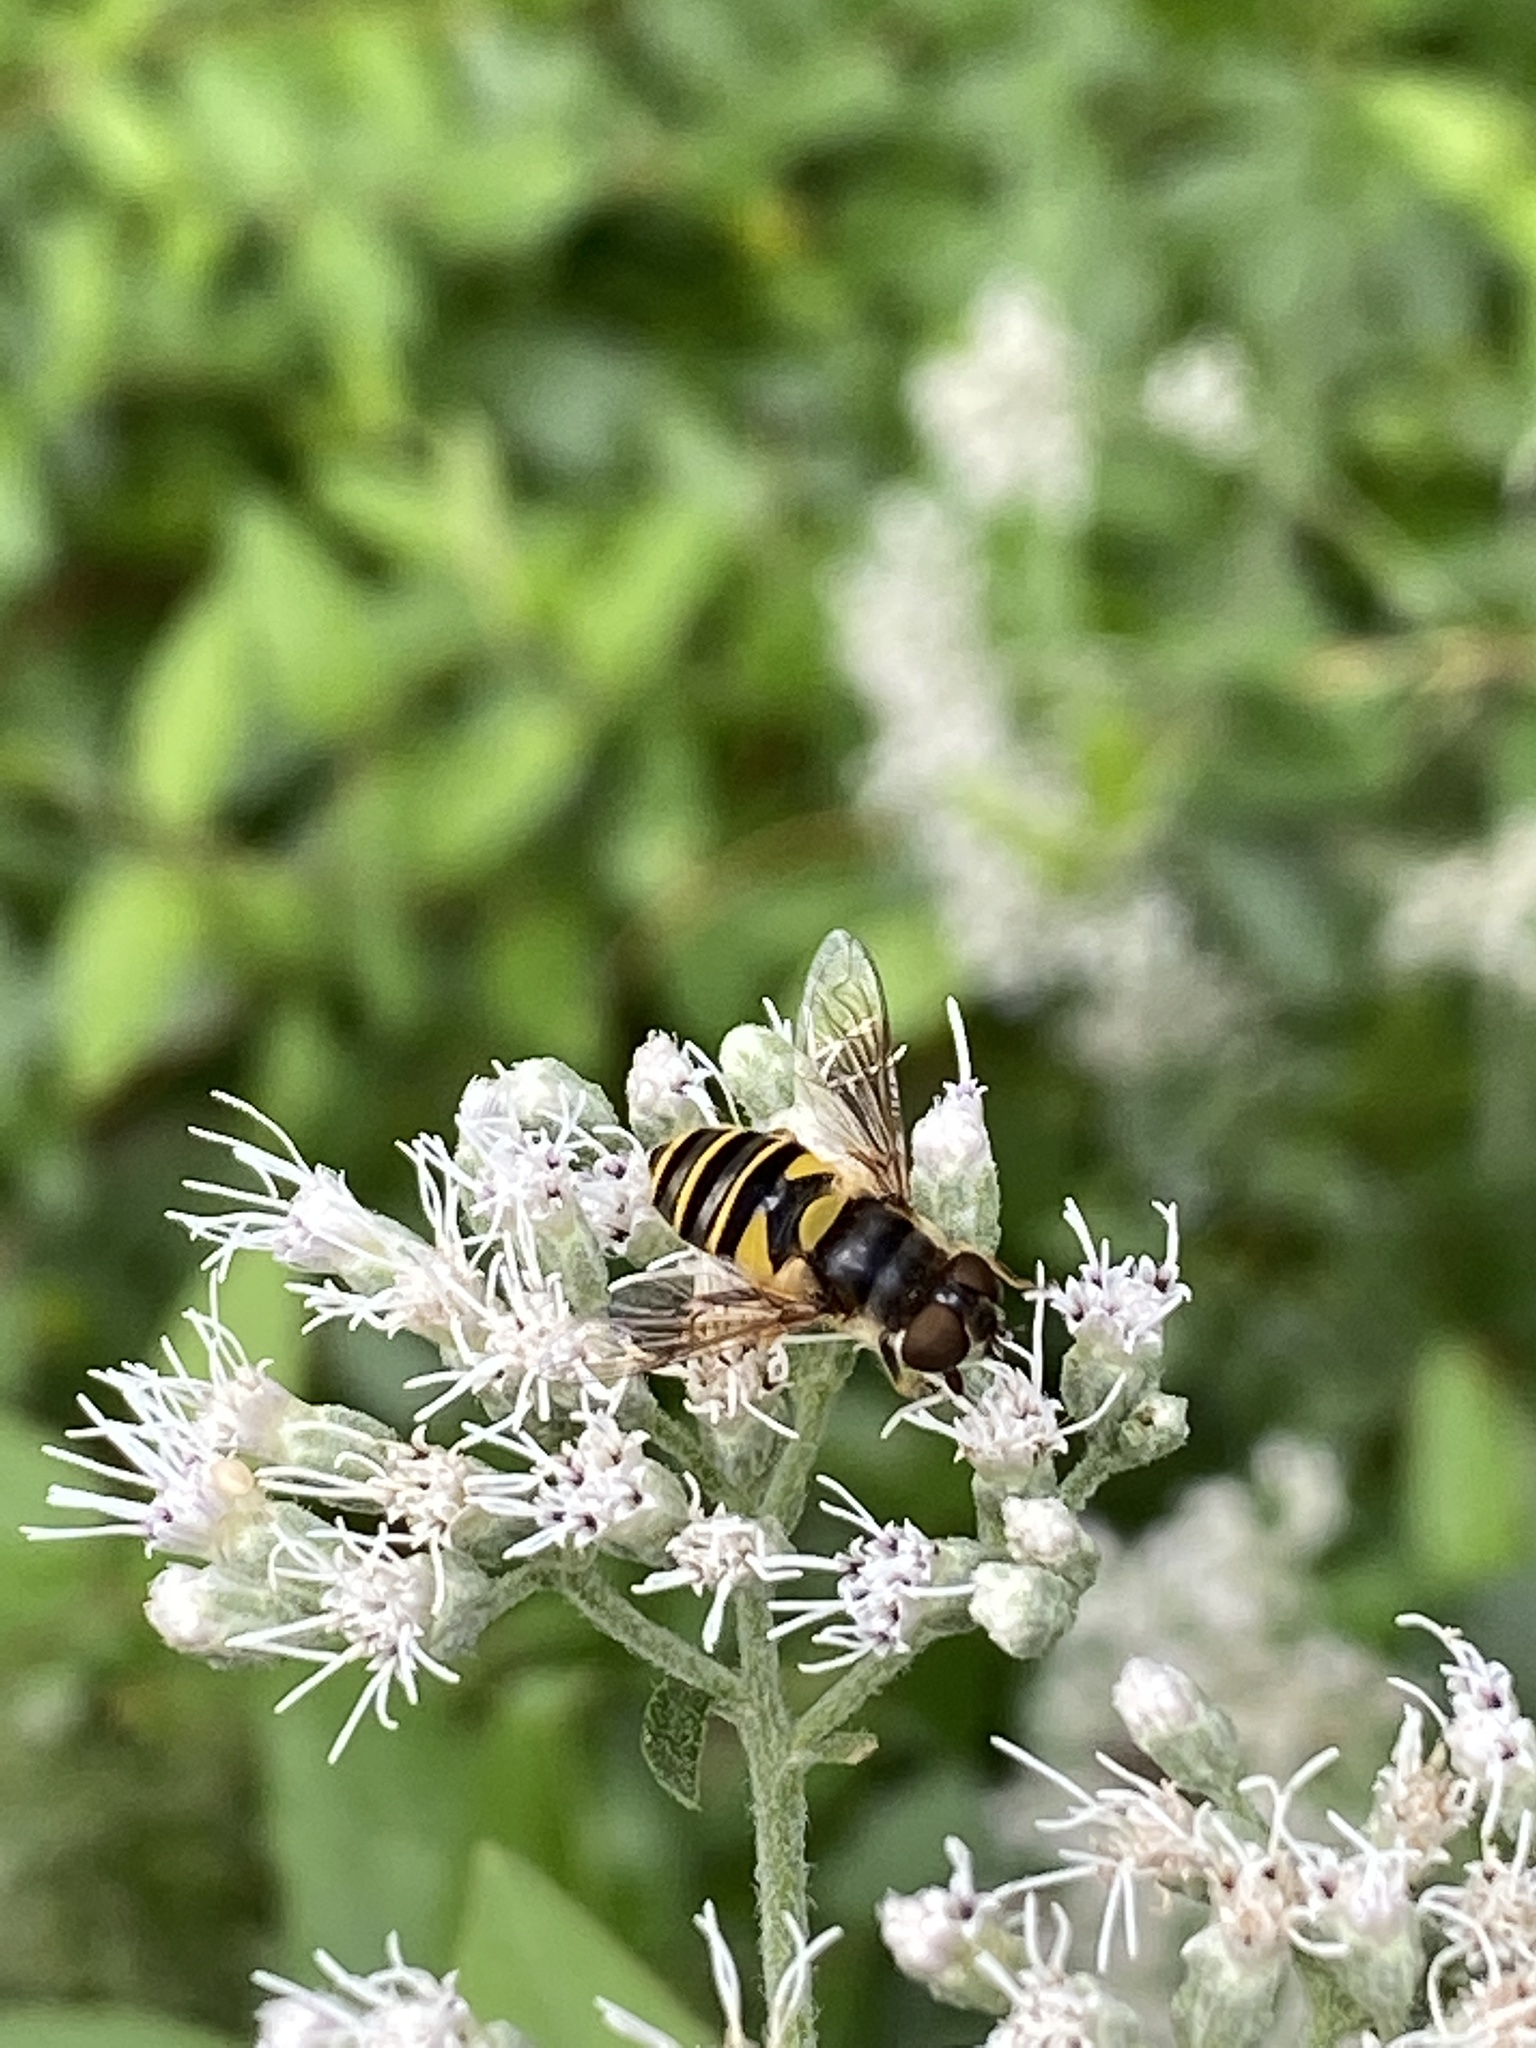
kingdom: Animalia
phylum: Arthropoda
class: Insecta
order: Diptera
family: Syrphidae
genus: Eristalis
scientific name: Eristalis transversa
